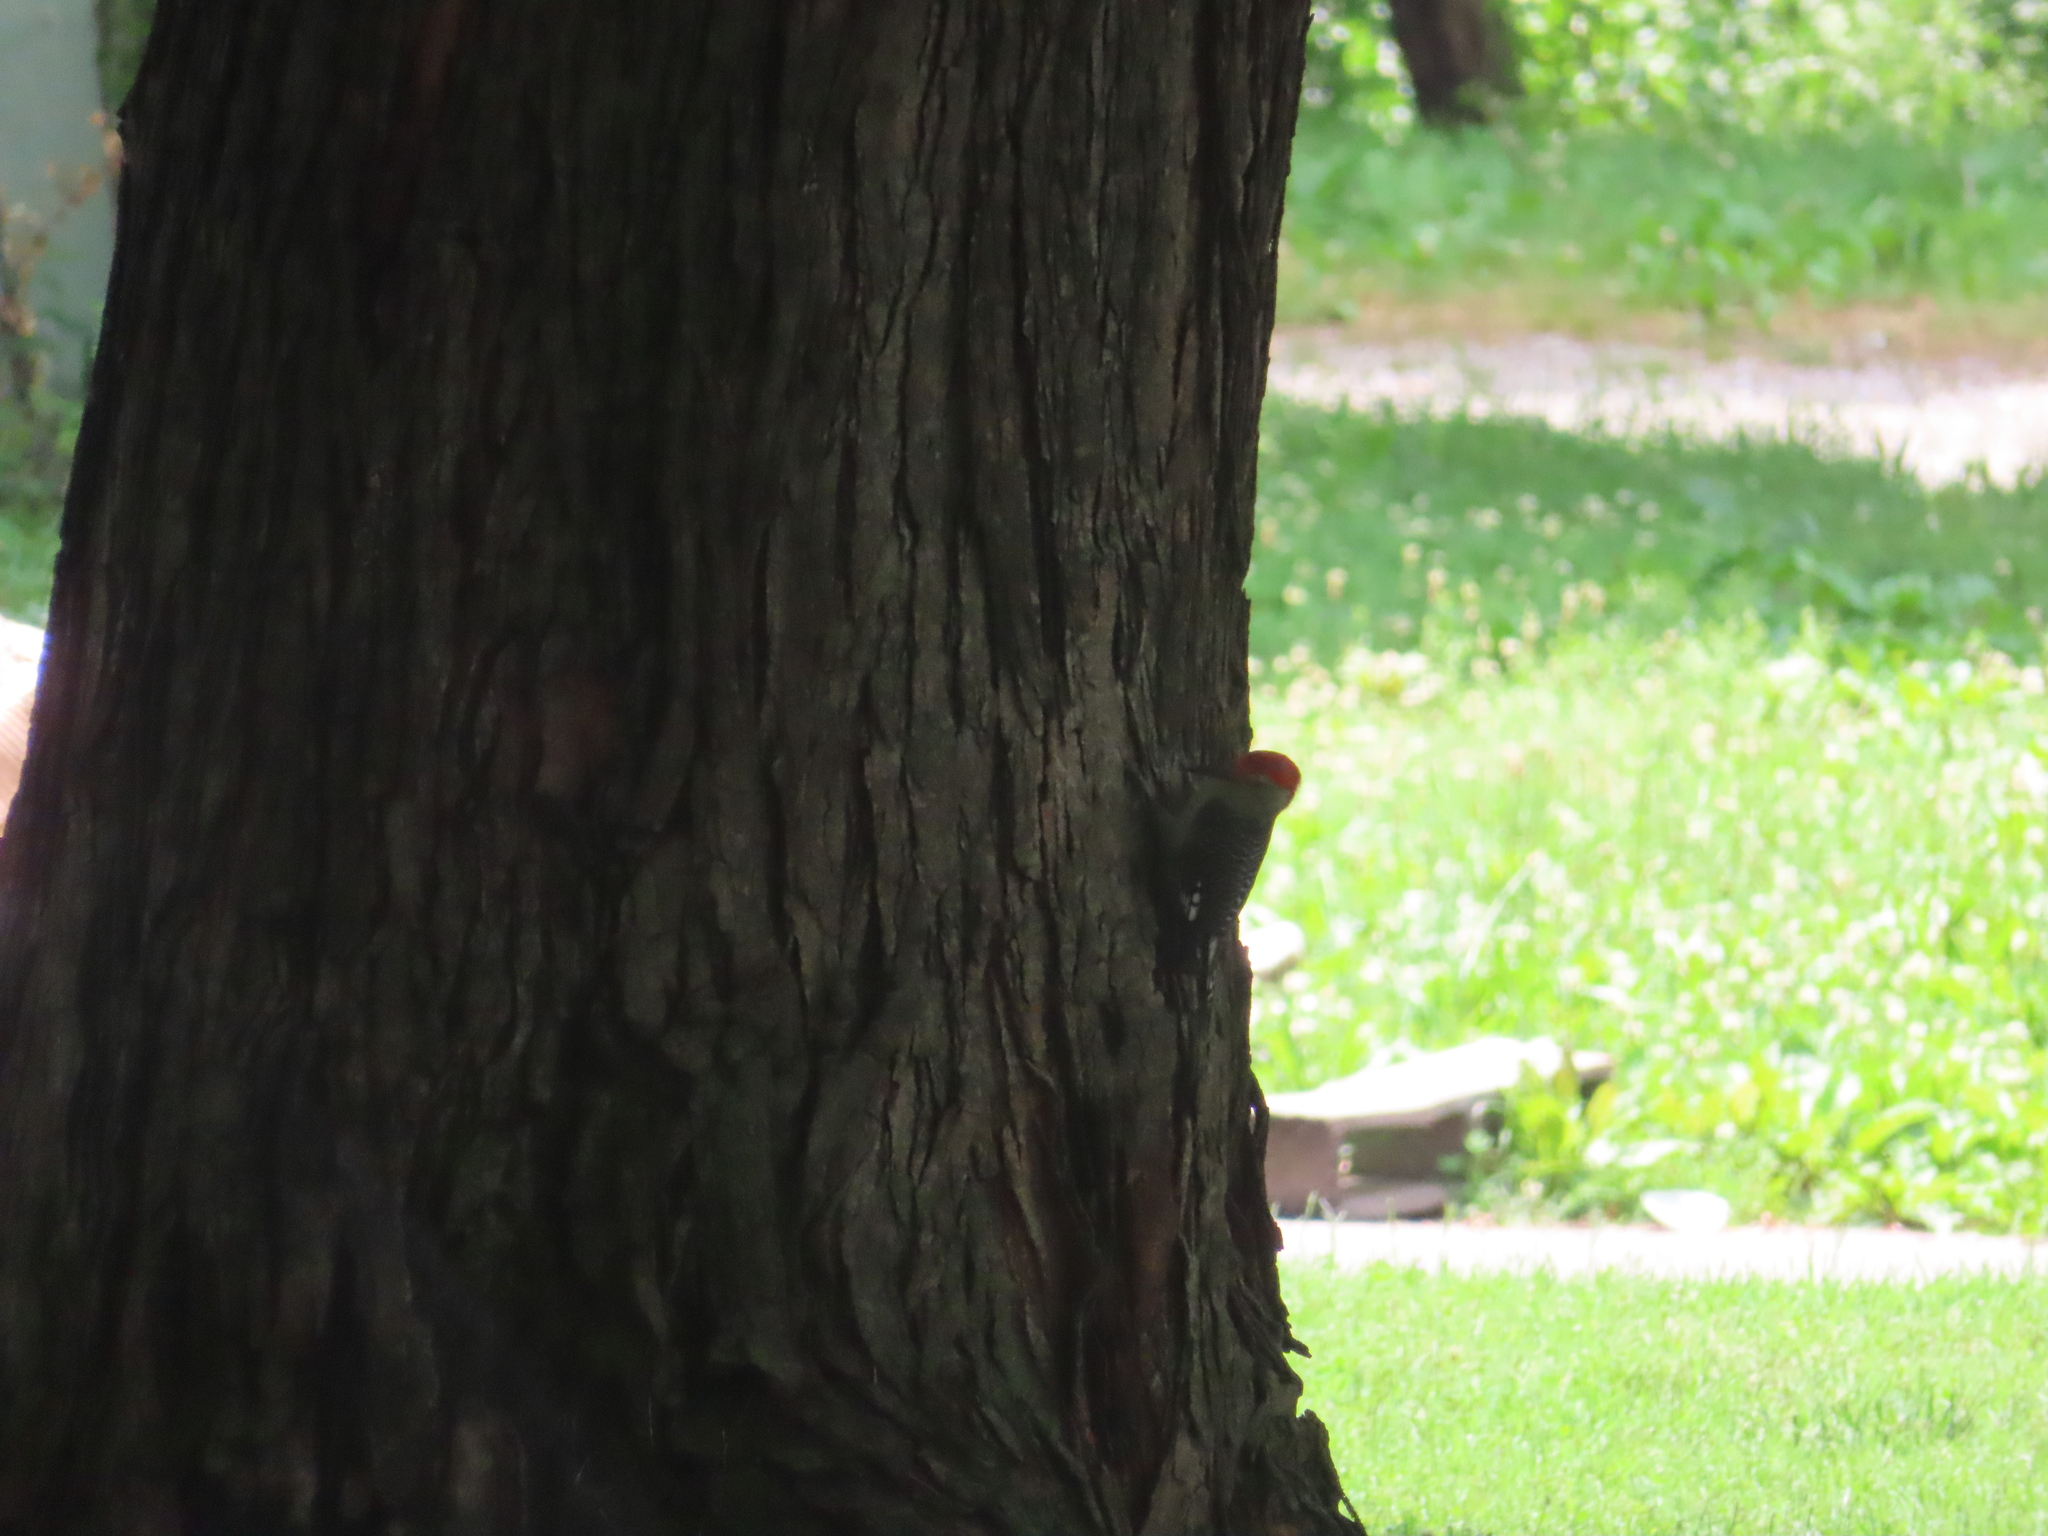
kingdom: Animalia
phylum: Chordata
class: Aves
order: Piciformes
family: Picidae
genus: Melanerpes
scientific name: Melanerpes carolinus
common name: Red-bellied woodpecker
